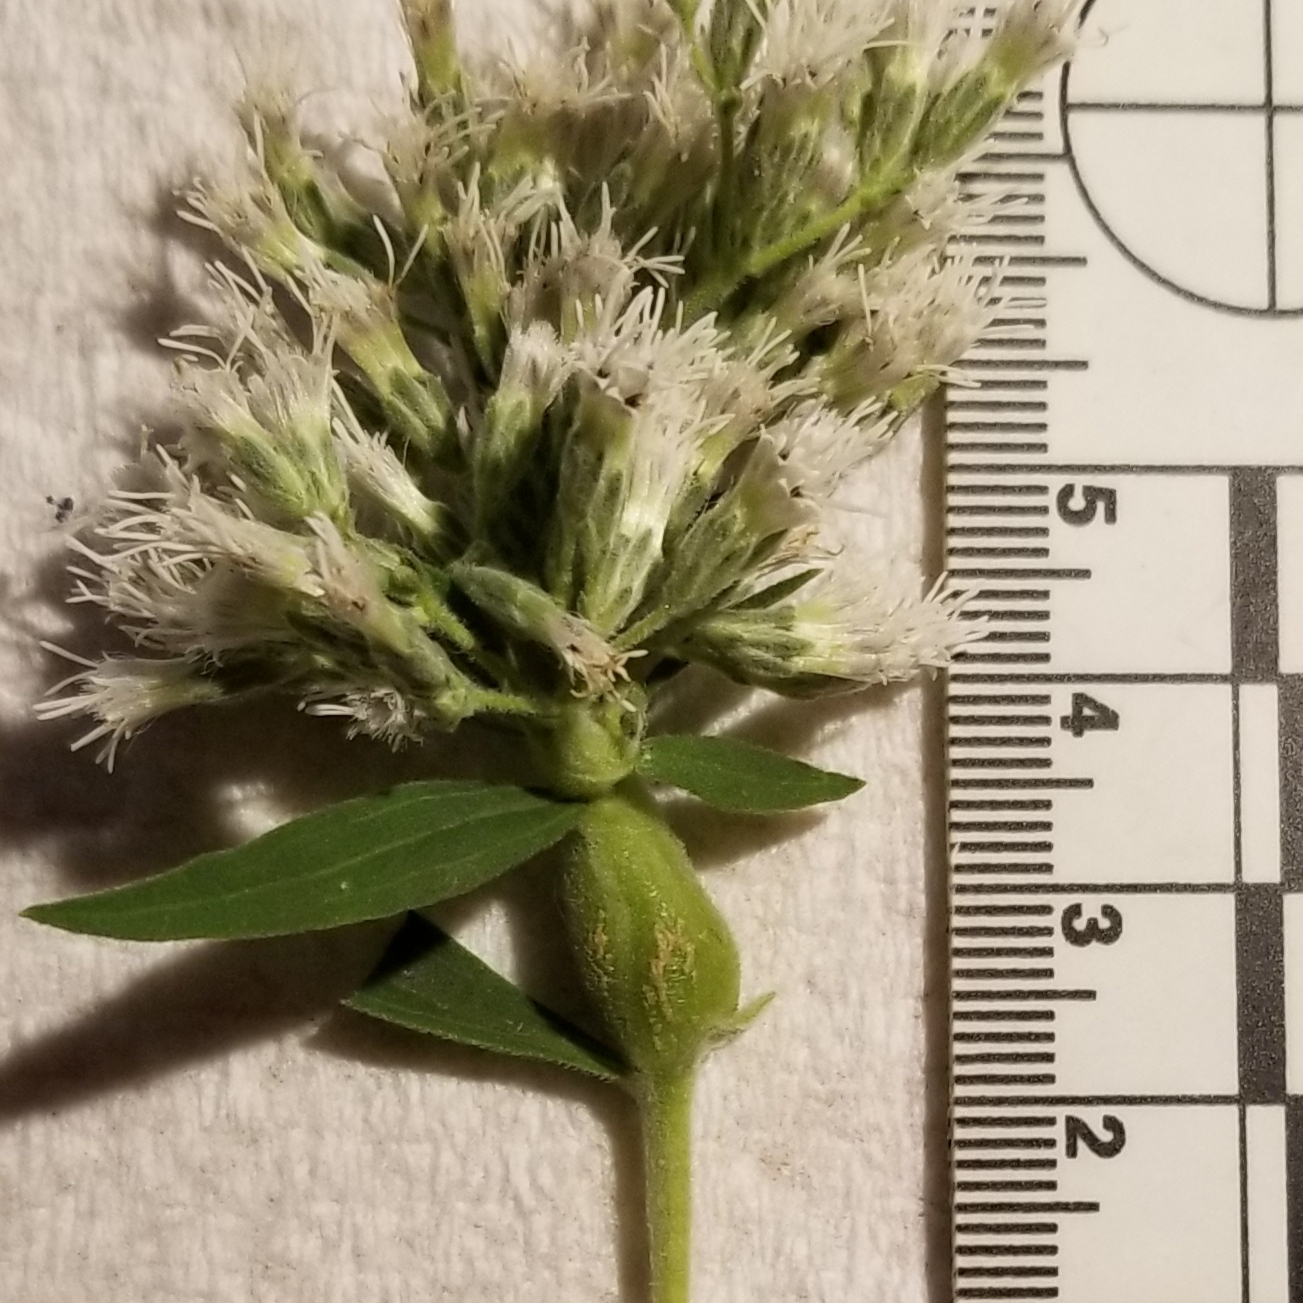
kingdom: Animalia
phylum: Arthropoda
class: Insecta
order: Diptera
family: Cecidomyiidae
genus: Neolasioptera
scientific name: Neolasioptera perfoliata
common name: Boneset stem midge
